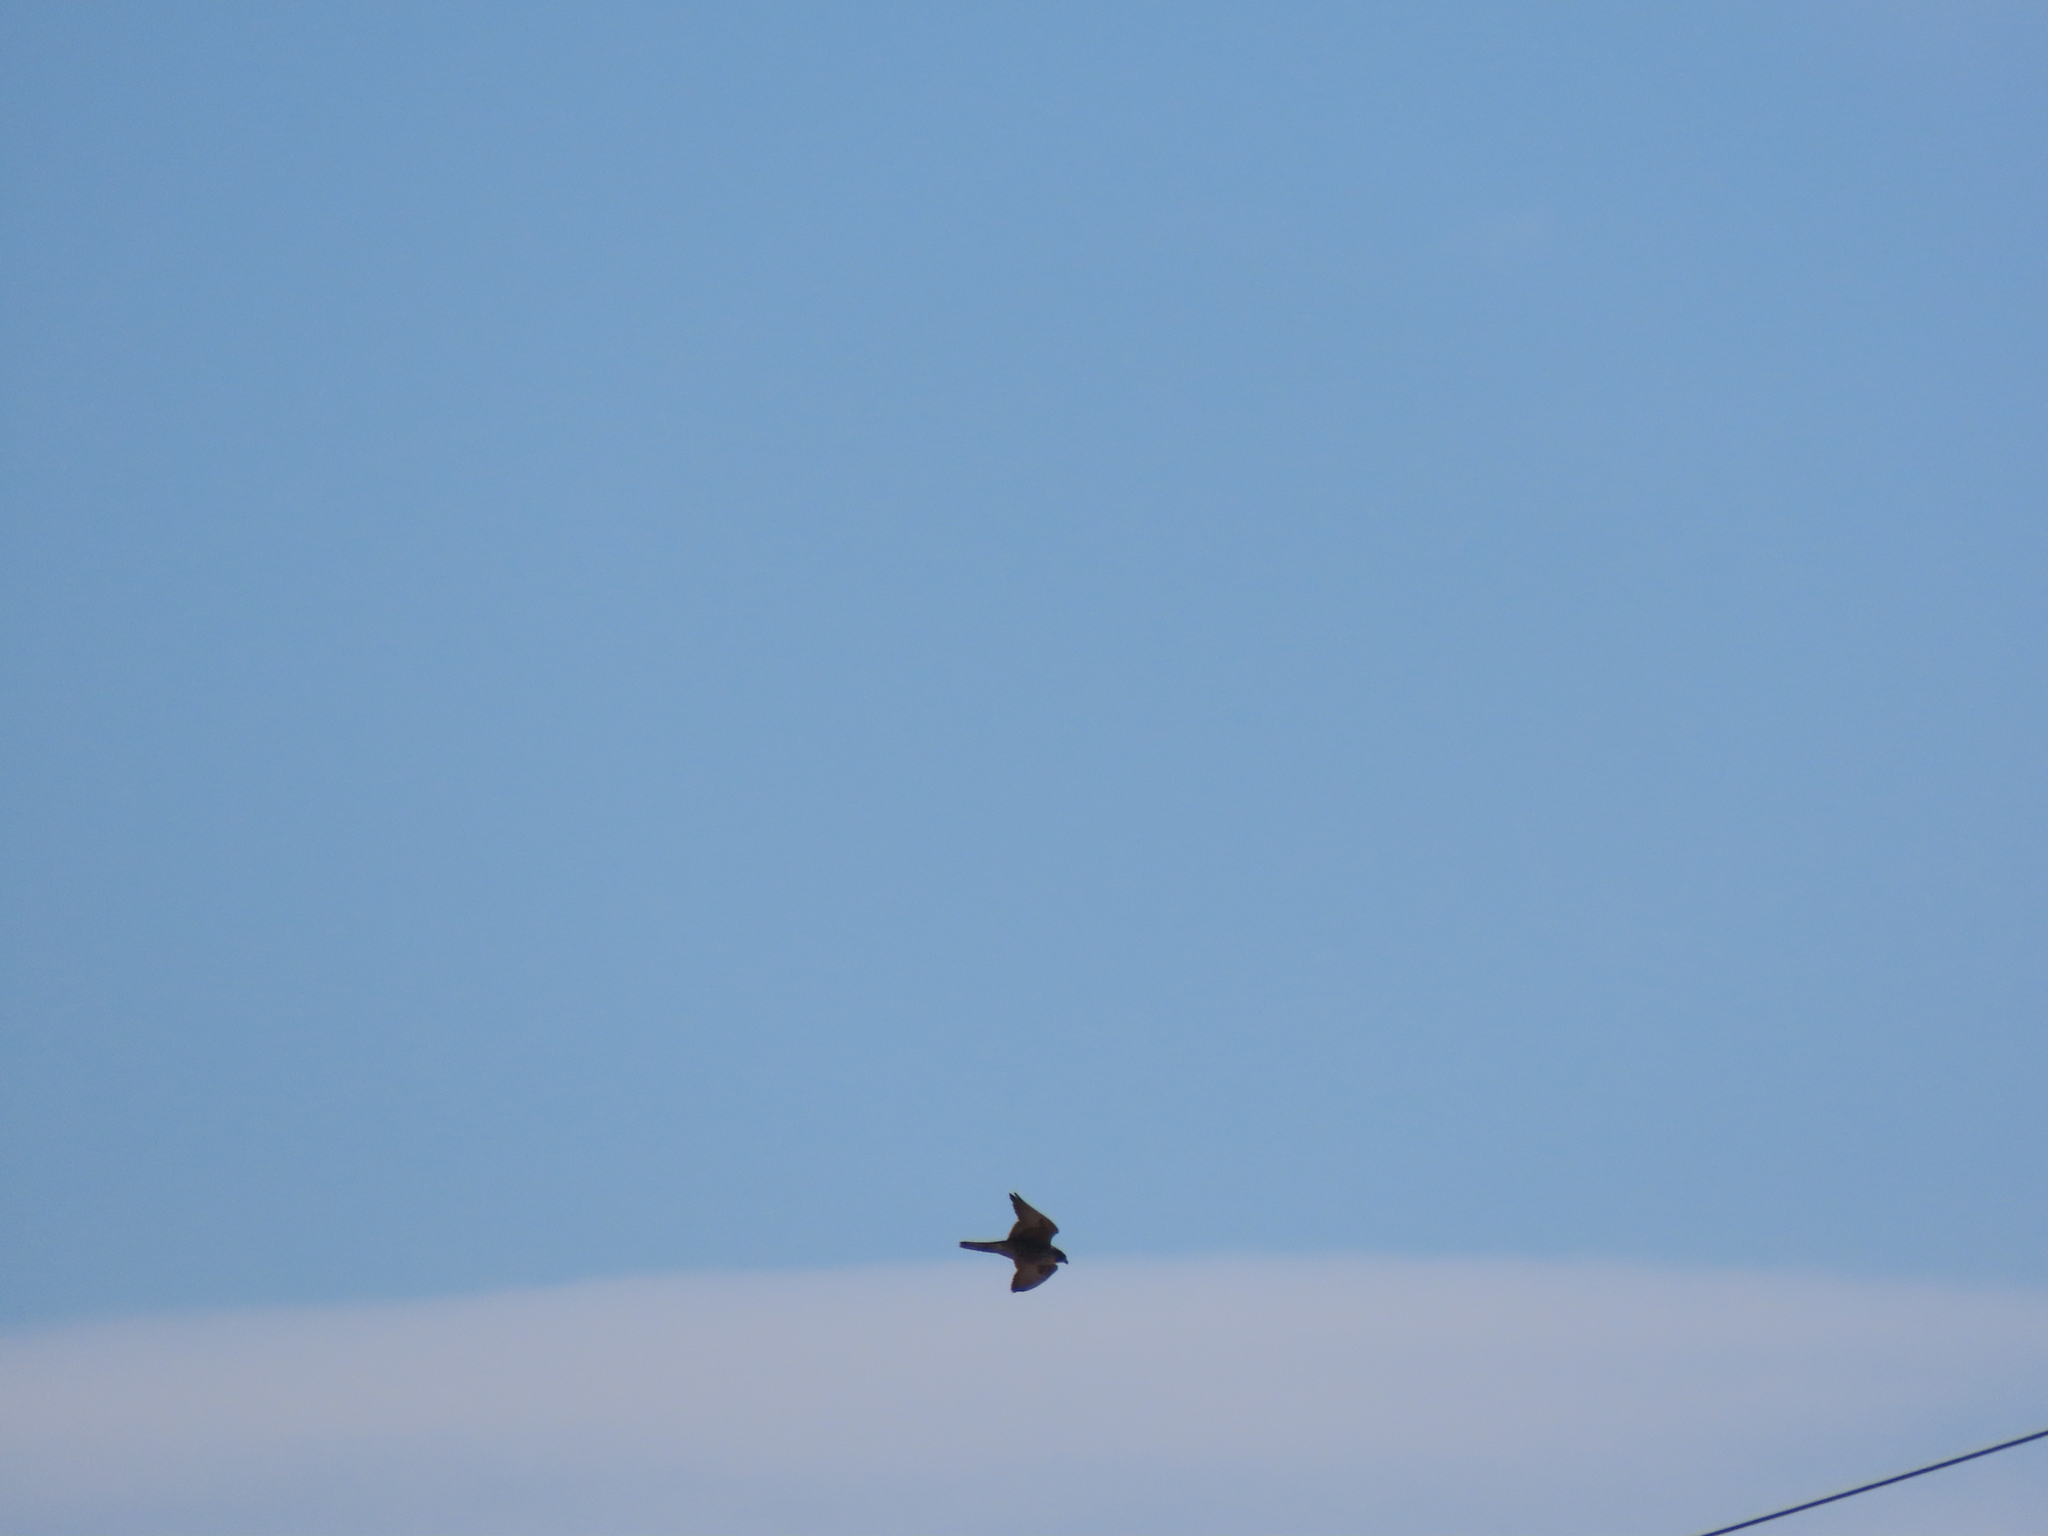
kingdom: Animalia
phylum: Chordata
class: Aves
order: Falconiformes
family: Falconidae
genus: Falco
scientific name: Falco peregrinus
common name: Peregrine falcon
